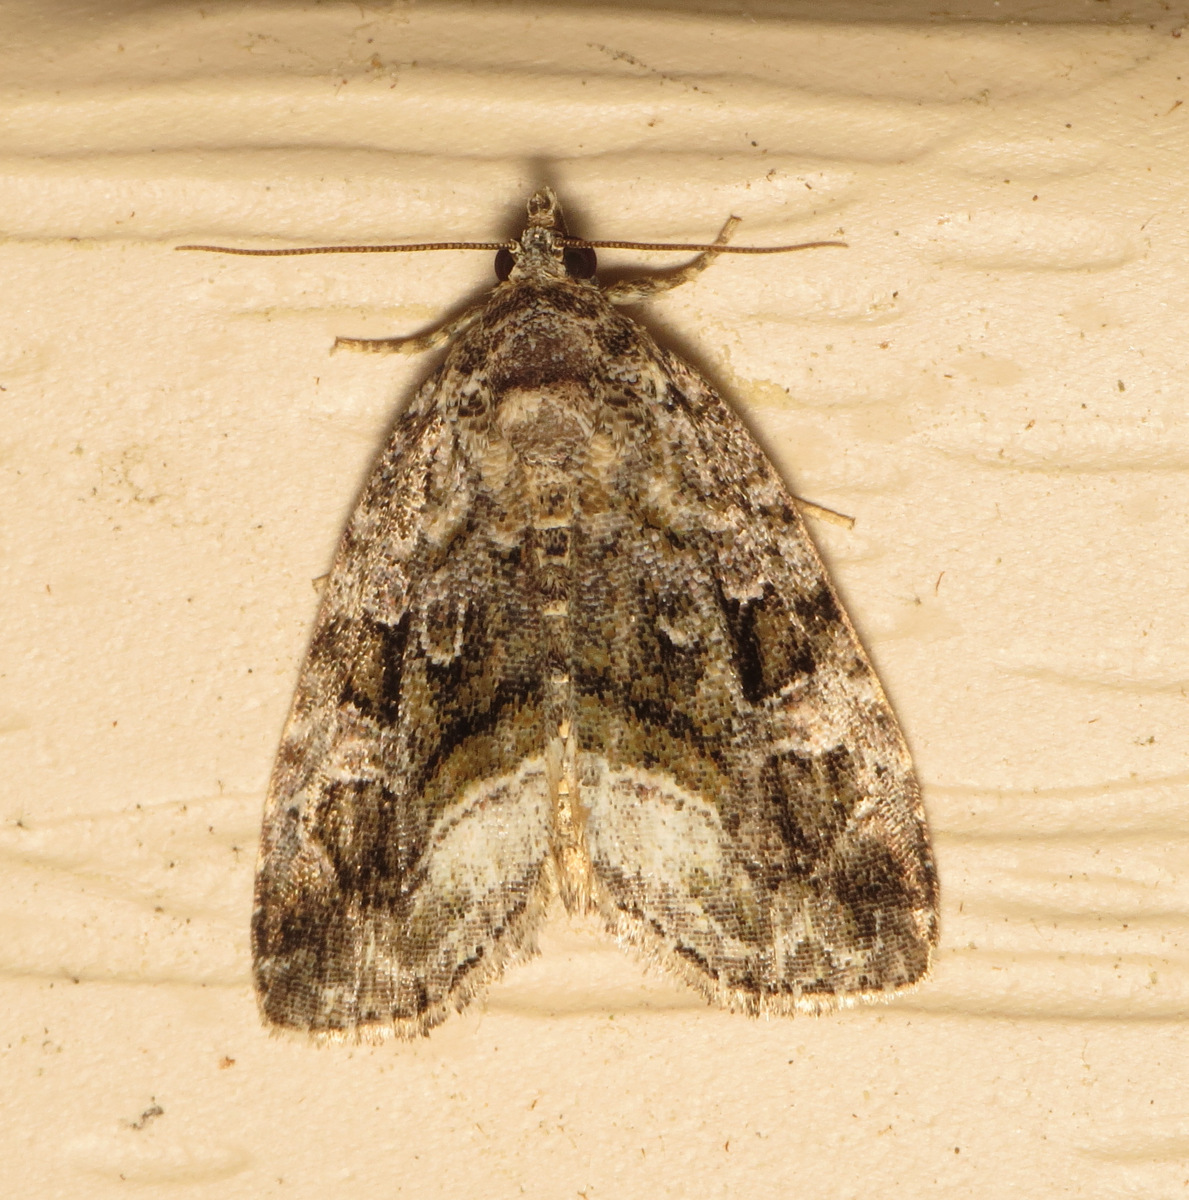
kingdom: Animalia
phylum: Arthropoda
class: Insecta
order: Lepidoptera
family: Noctuidae
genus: Protodeltote
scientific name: Protodeltote muscosula
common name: Large mossy glyph
